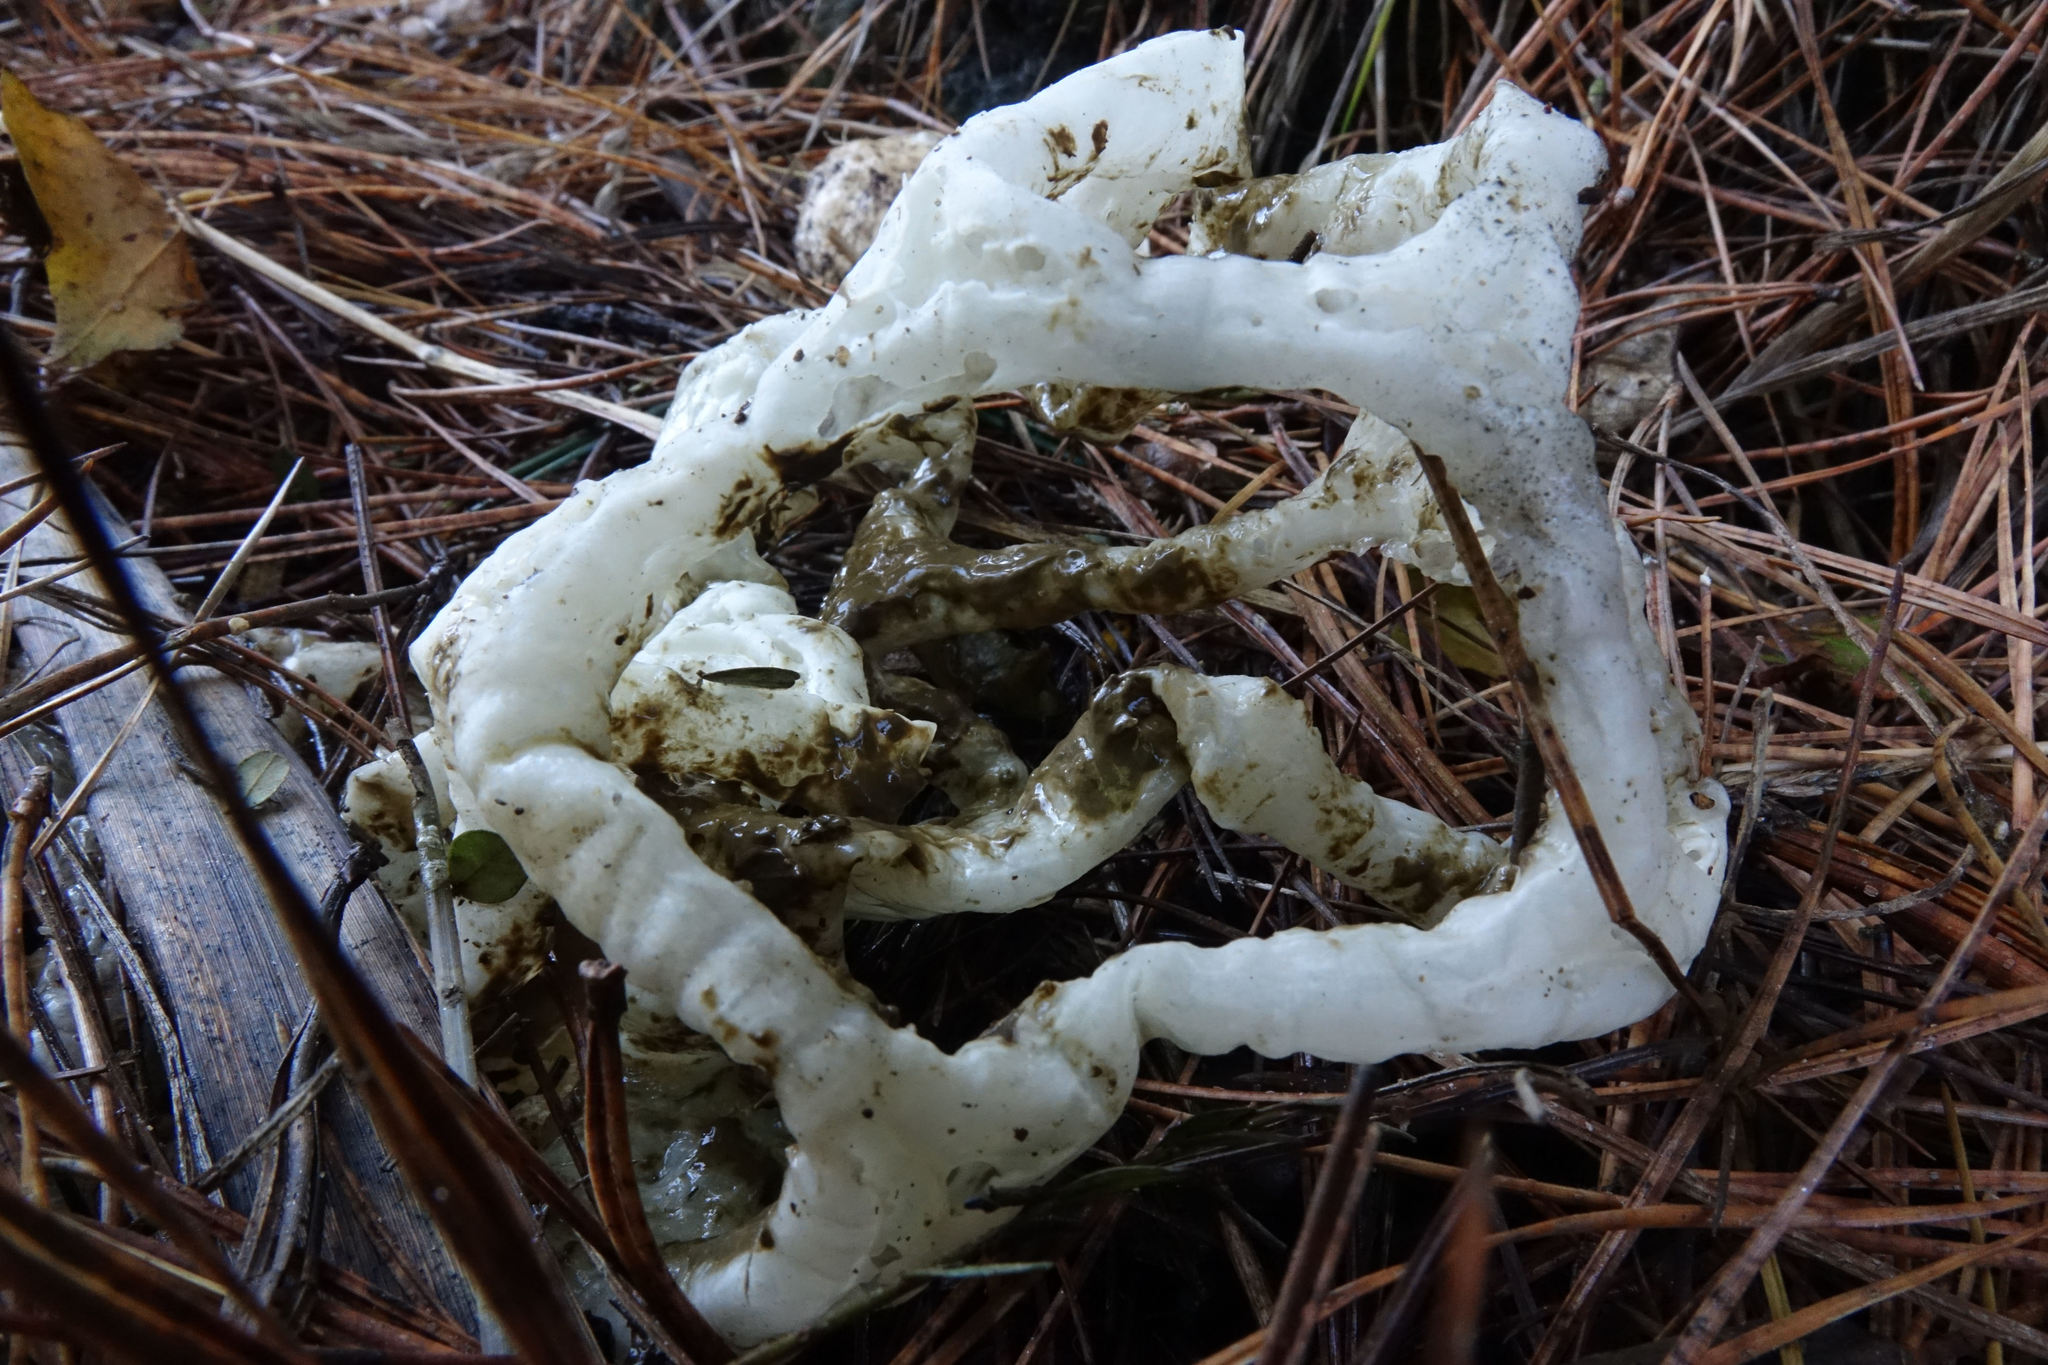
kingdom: Fungi
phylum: Basidiomycota
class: Agaricomycetes
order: Phallales
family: Phallaceae
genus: Ileodictyon
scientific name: Ileodictyon cibarium
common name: Basket fungus
